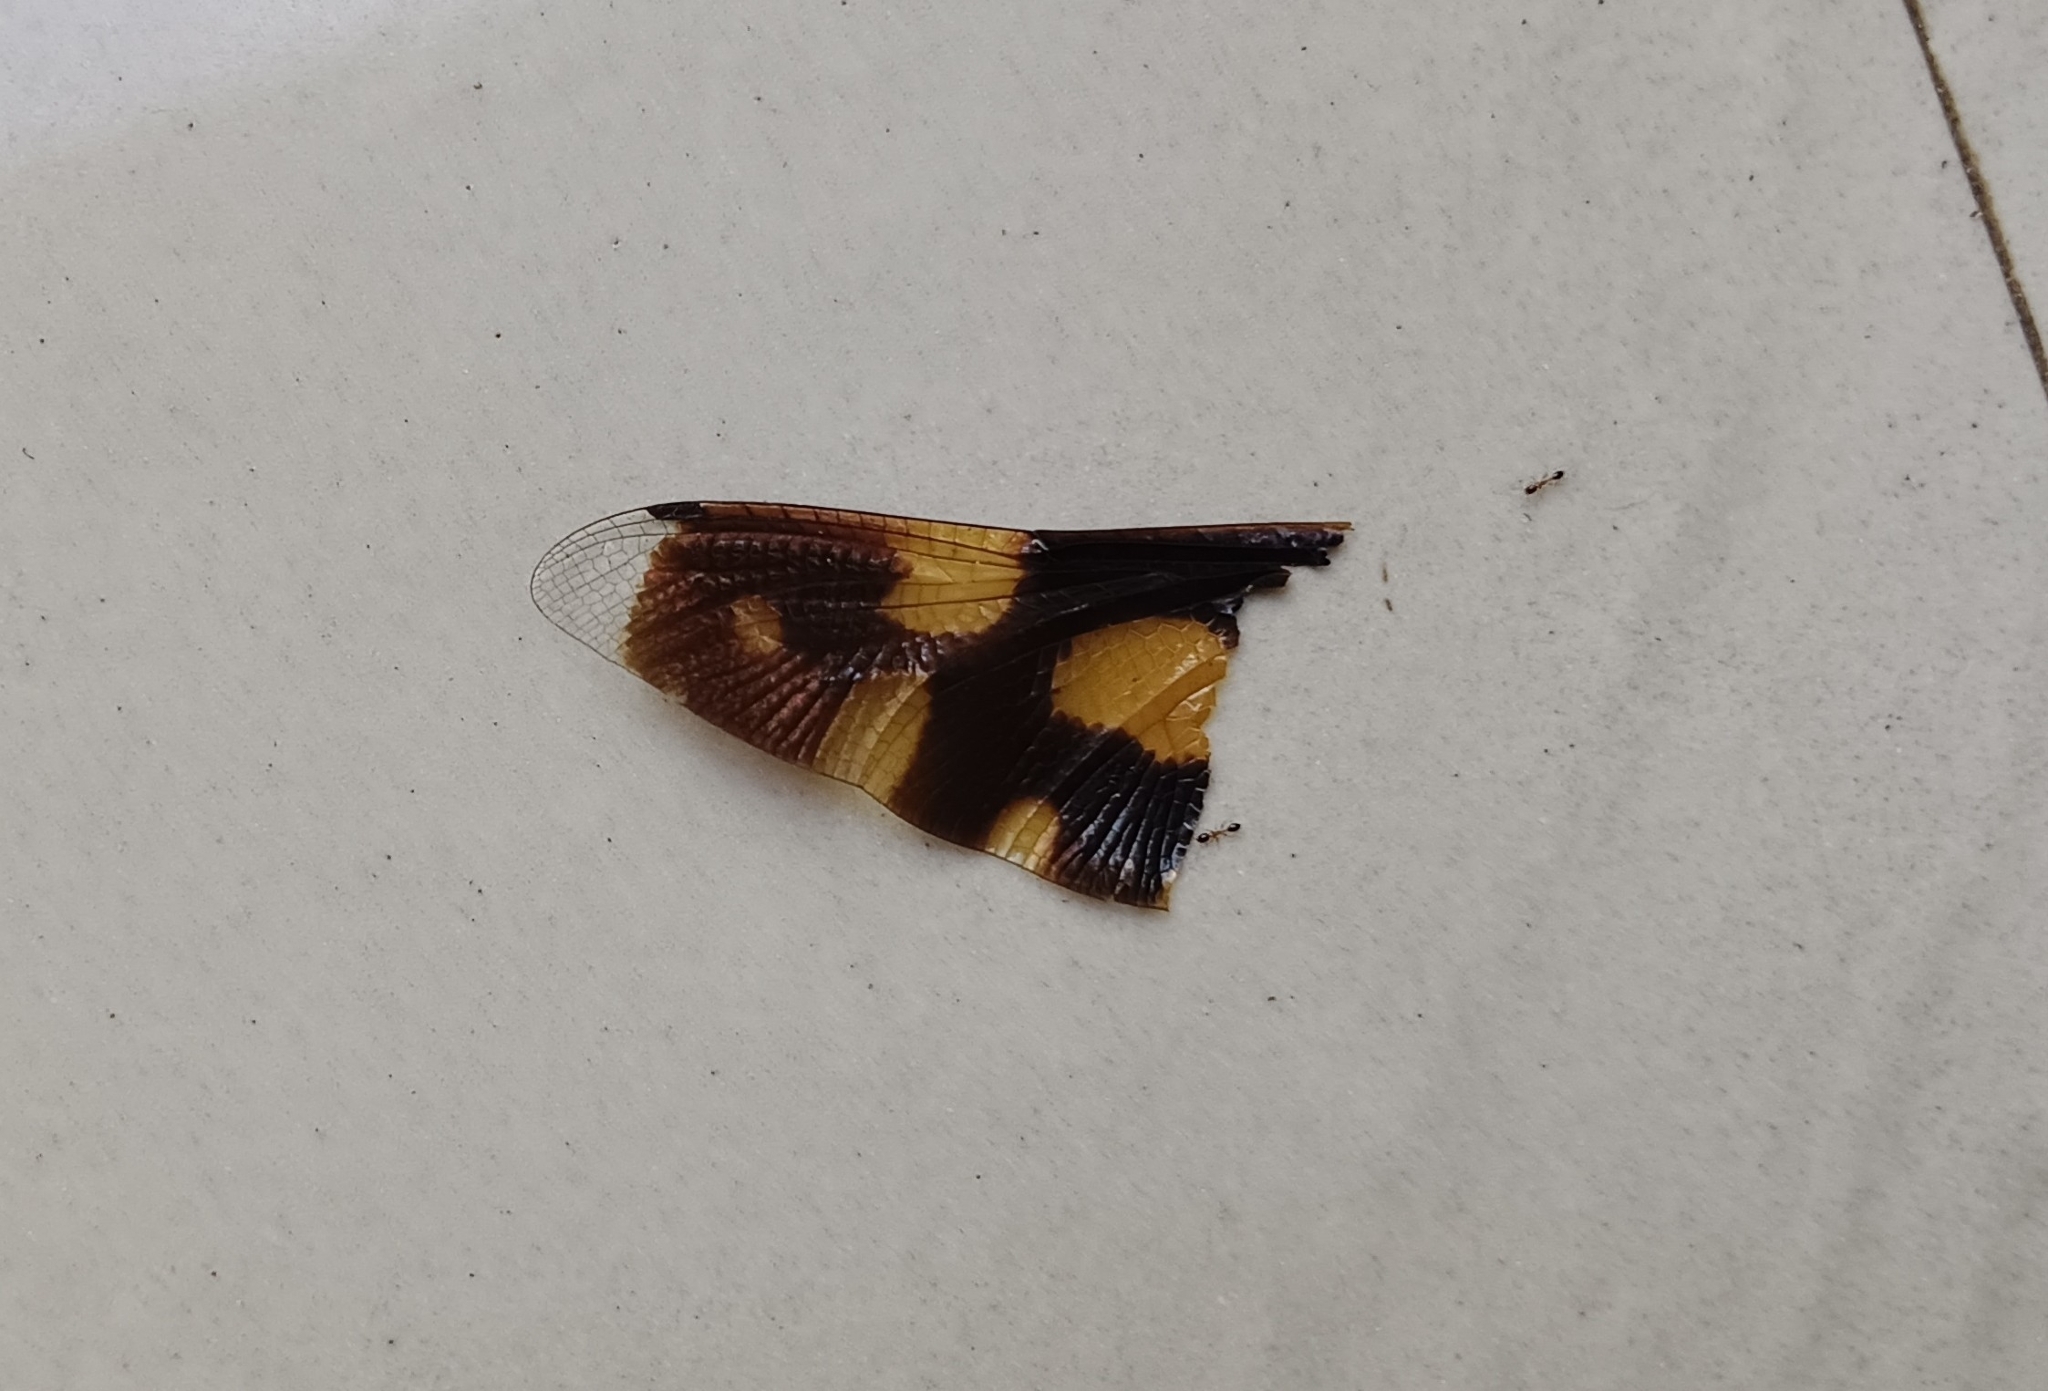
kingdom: Animalia
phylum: Arthropoda
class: Insecta
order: Odonata
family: Libellulidae
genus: Rhyothemis
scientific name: Rhyothemis variegata
